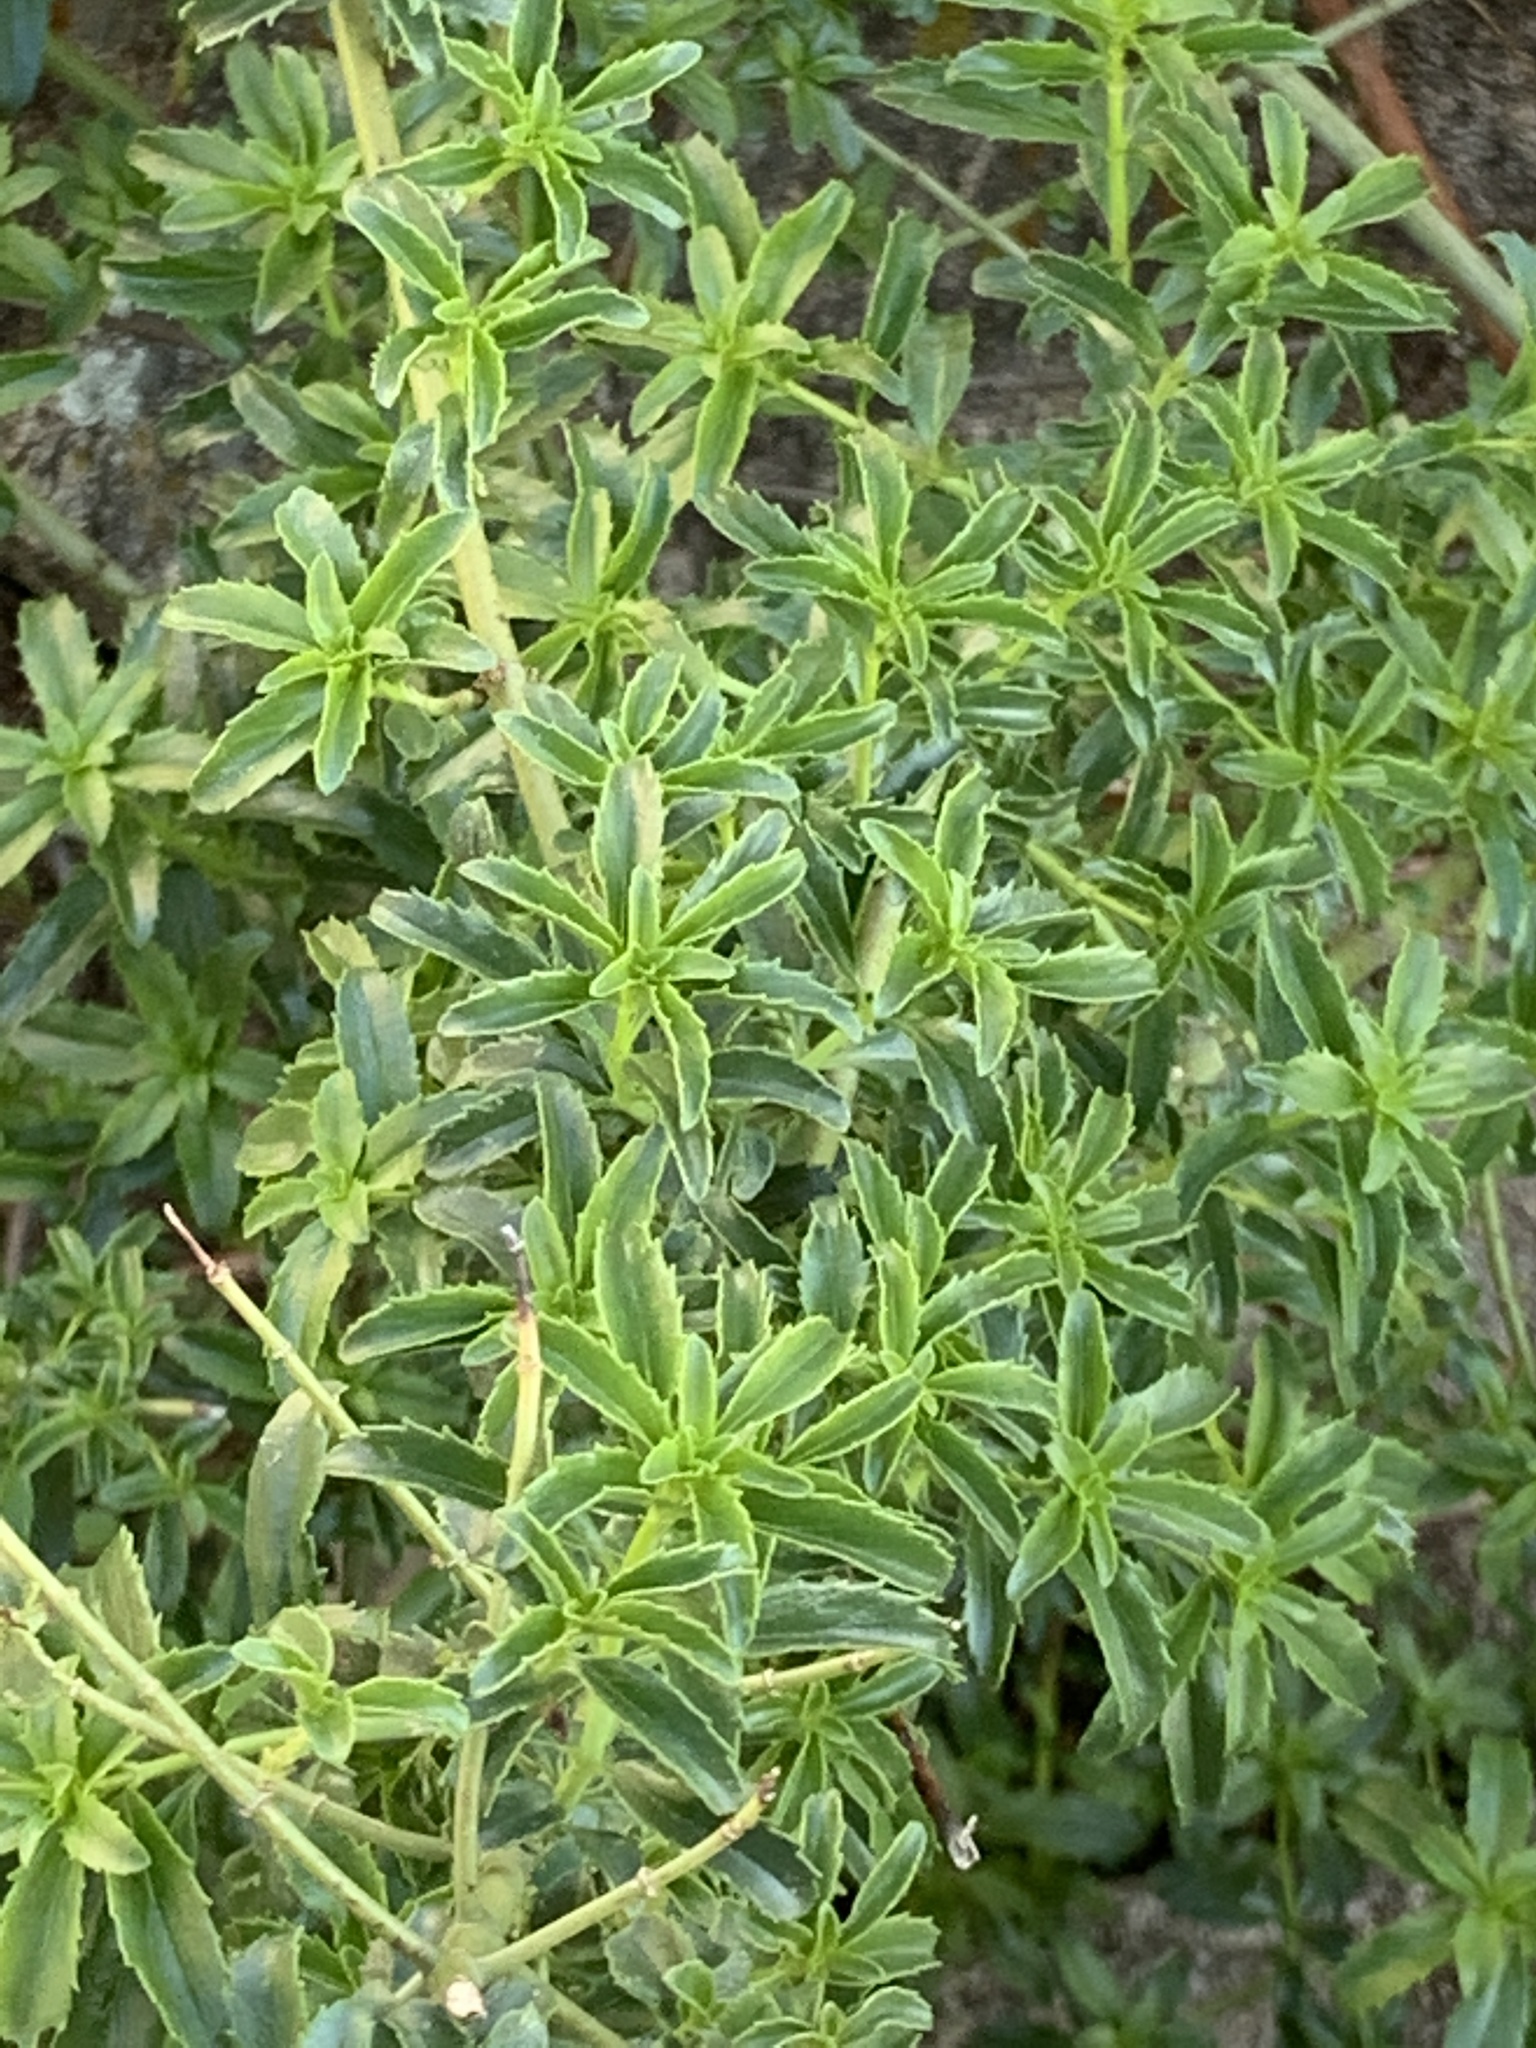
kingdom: Plantae
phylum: Tracheophyta
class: Magnoliopsida
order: Lamiales
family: Plantaginaceae
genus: Keckiella
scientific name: Keckiella ternata
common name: Scarlet keckiella
